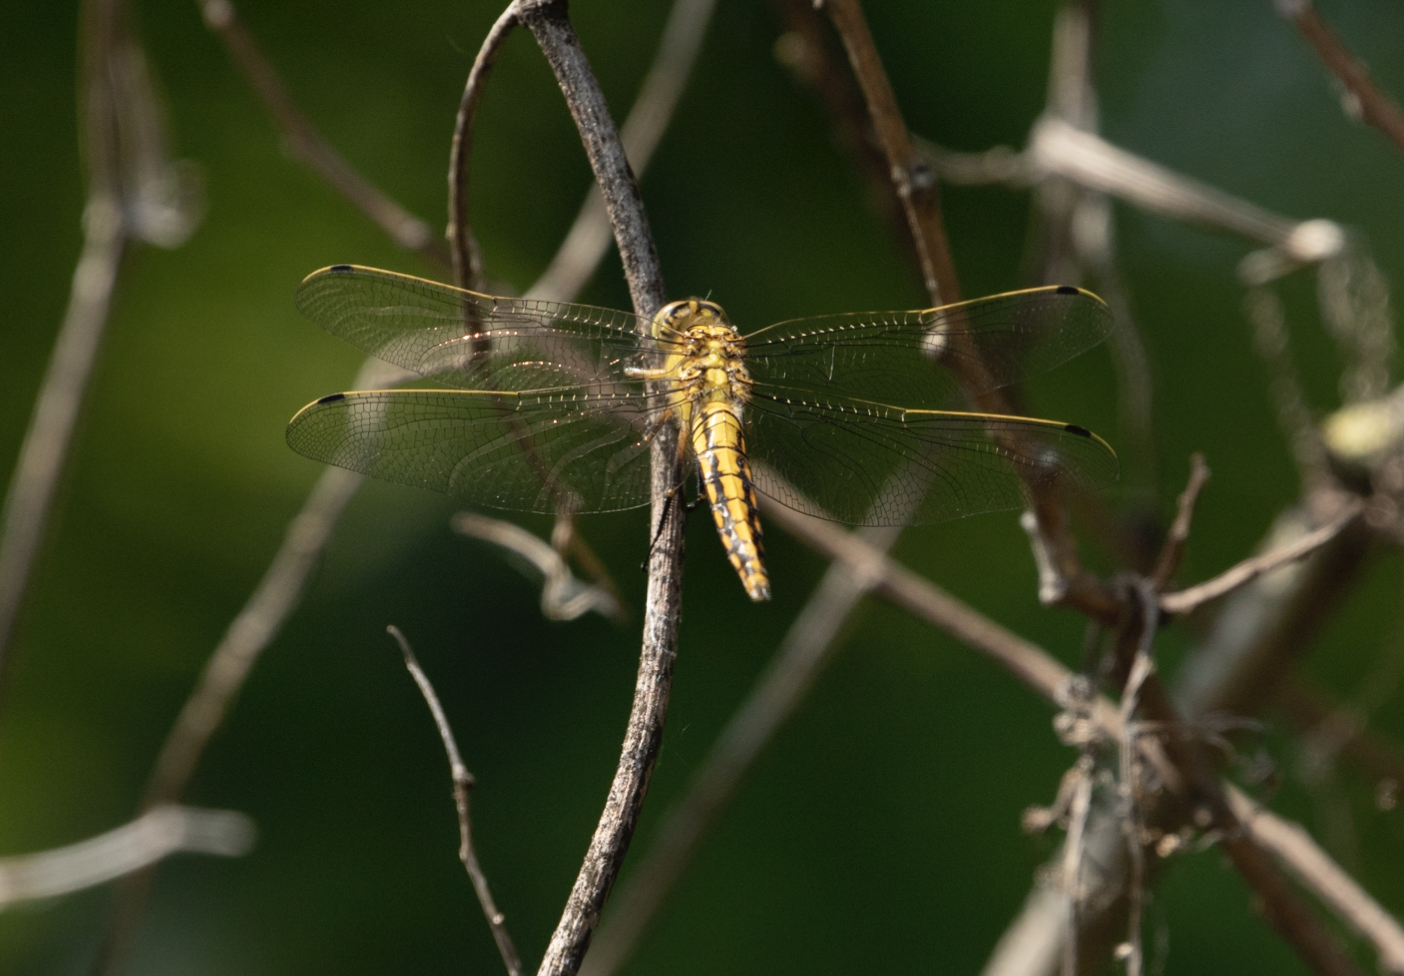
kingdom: Animalia
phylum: Arthropoda
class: Insecta
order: Odonata
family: Libellulidae
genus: Orthetrum
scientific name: Orthetrum cancellatum
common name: Black-tailed skimmer
